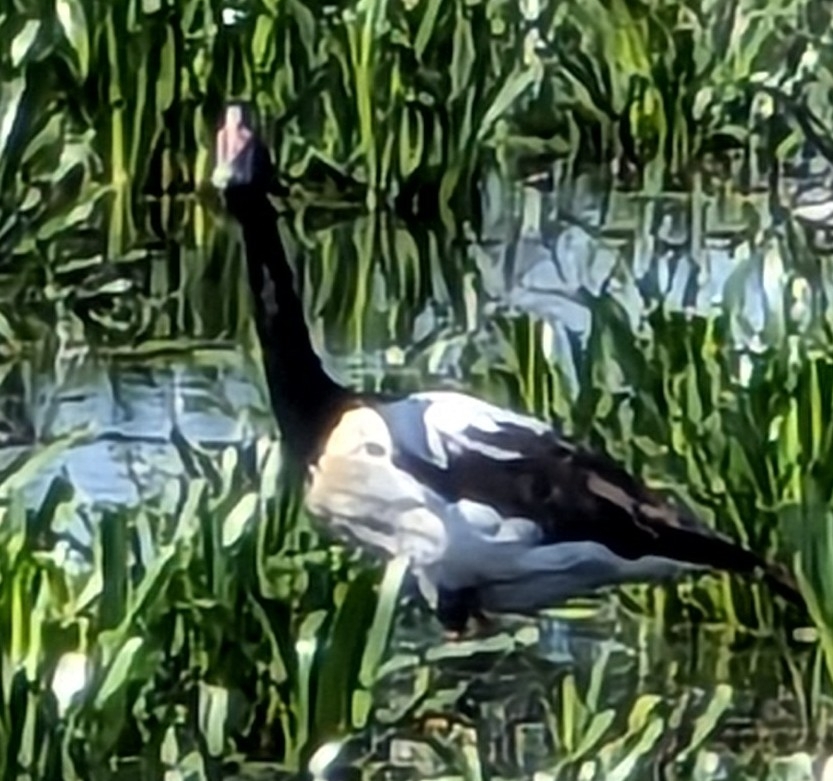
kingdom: Animalia
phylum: Chordata
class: Aves
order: Anseriformes
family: Anseranatidae
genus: Anseranas
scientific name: Anseranas semipalmata
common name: Magpie goose
